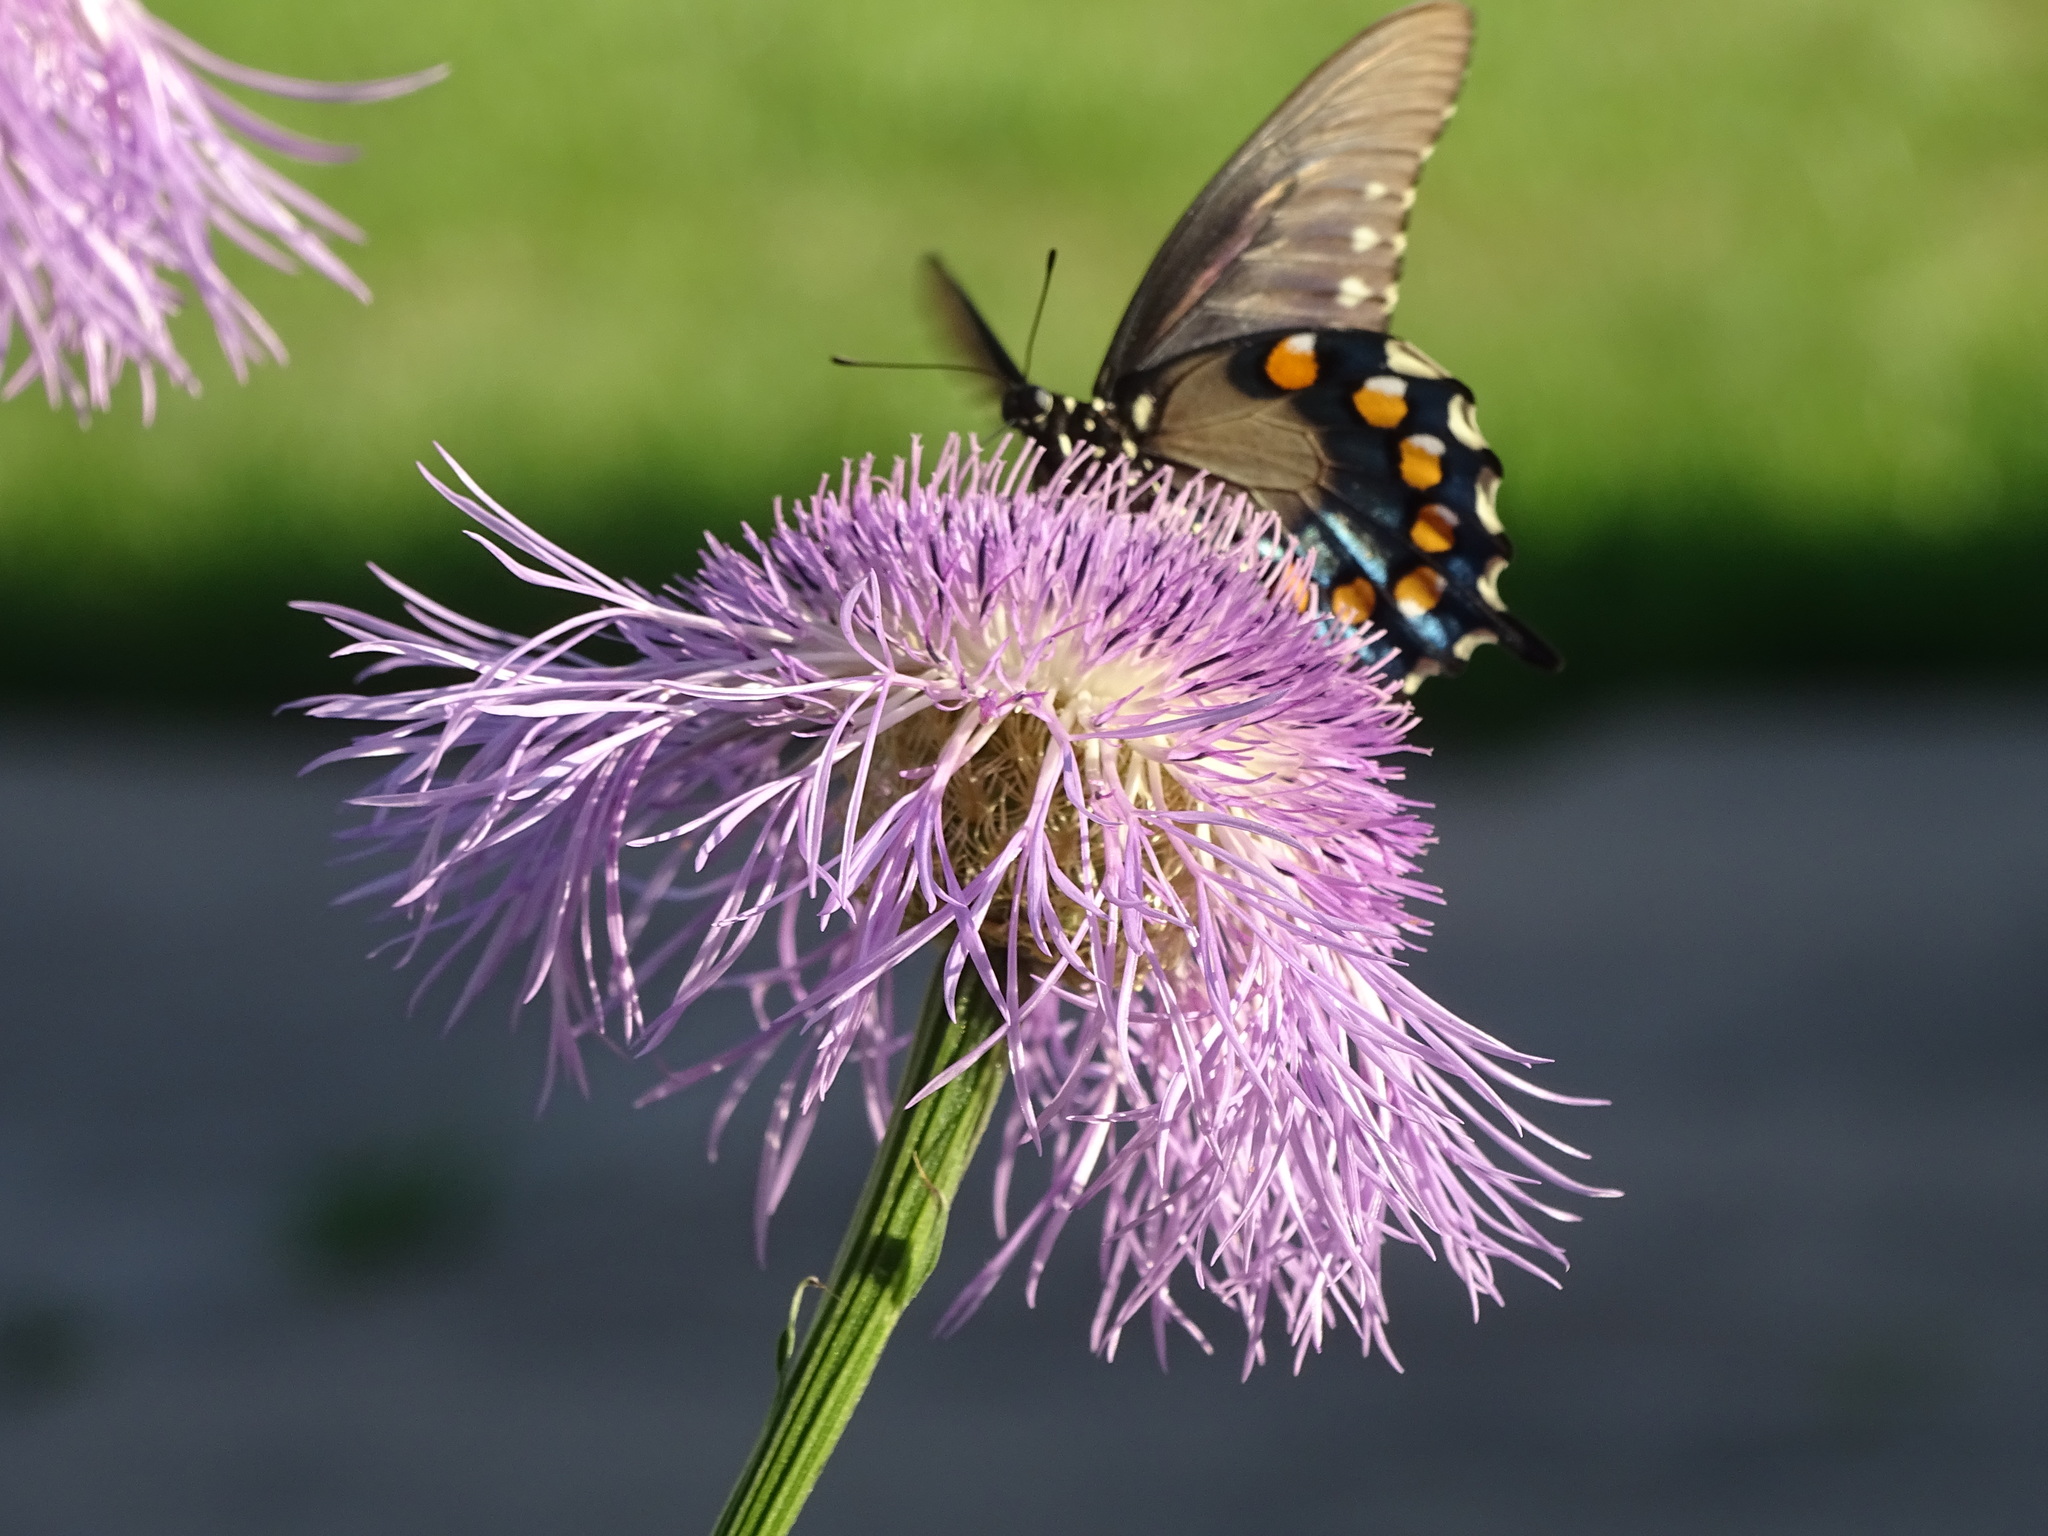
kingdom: Animalia
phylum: Arthropoda
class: Insecta
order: Lepidoptera
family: Papilionidae
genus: Battus
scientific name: Battus philenor
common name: Pipevine swallowtail
